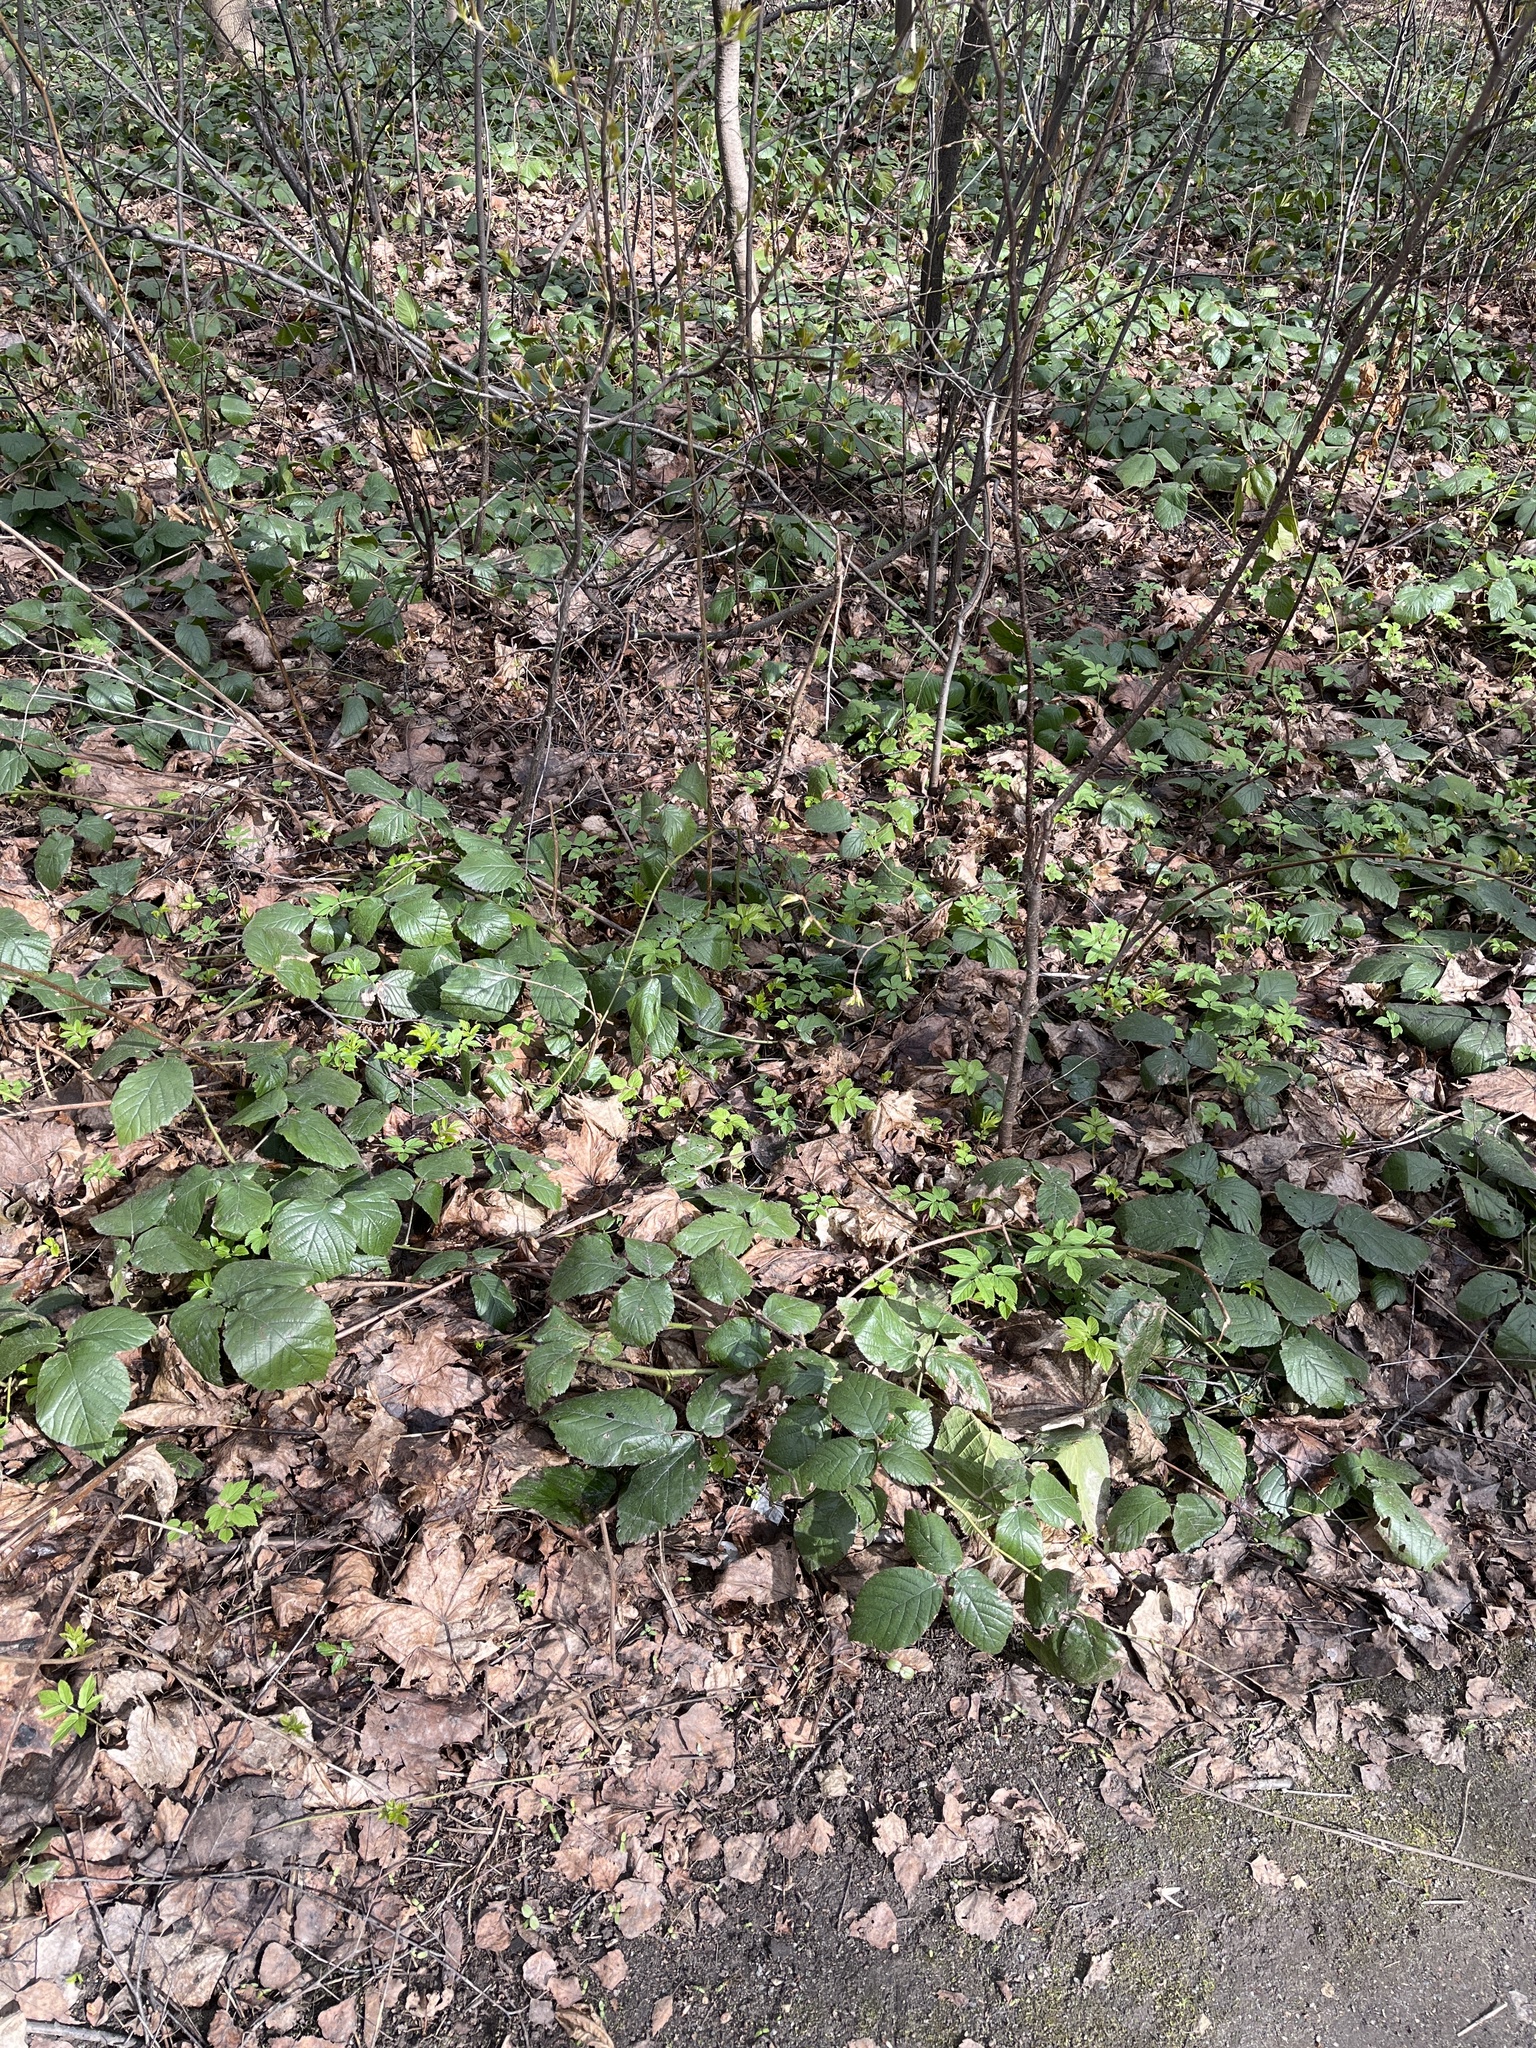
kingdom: Plantae
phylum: Tracheophyta
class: Magnoliopsida
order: Rosales
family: Rosaceae
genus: Rubus
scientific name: Rubus hirtus
